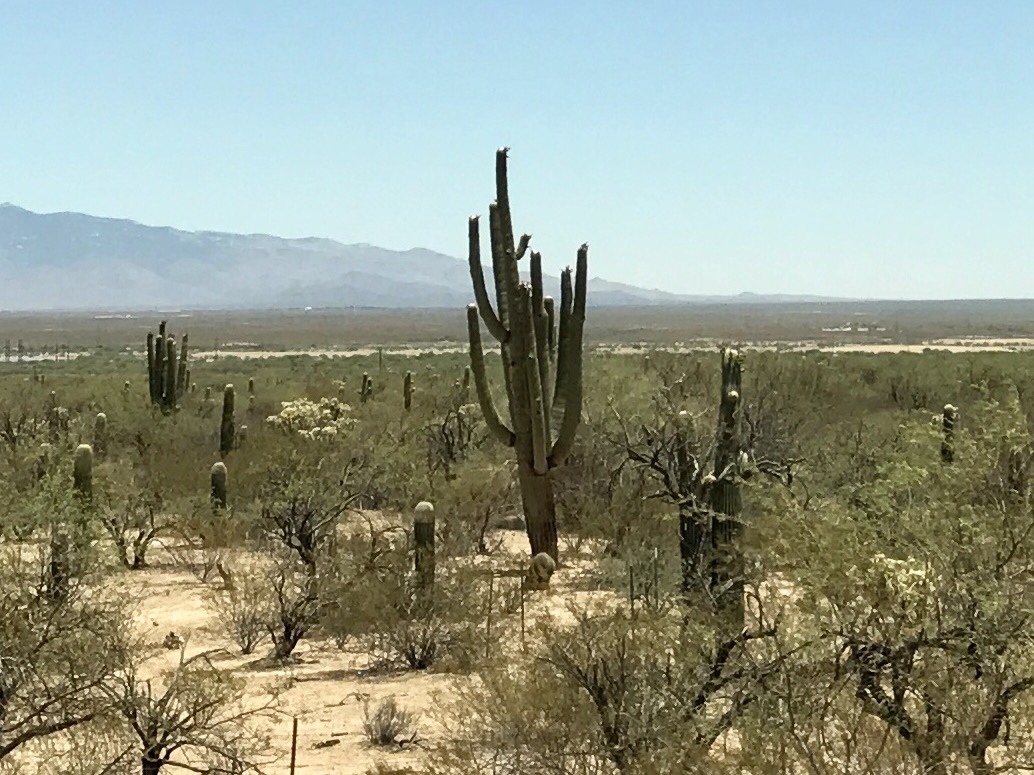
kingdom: Plantae
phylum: Tracheophyta
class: Magnoliopsida
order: Caryophyllales
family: Cactaceae
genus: Carnegiea
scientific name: Carnegiea gigantea
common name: Saguaro
